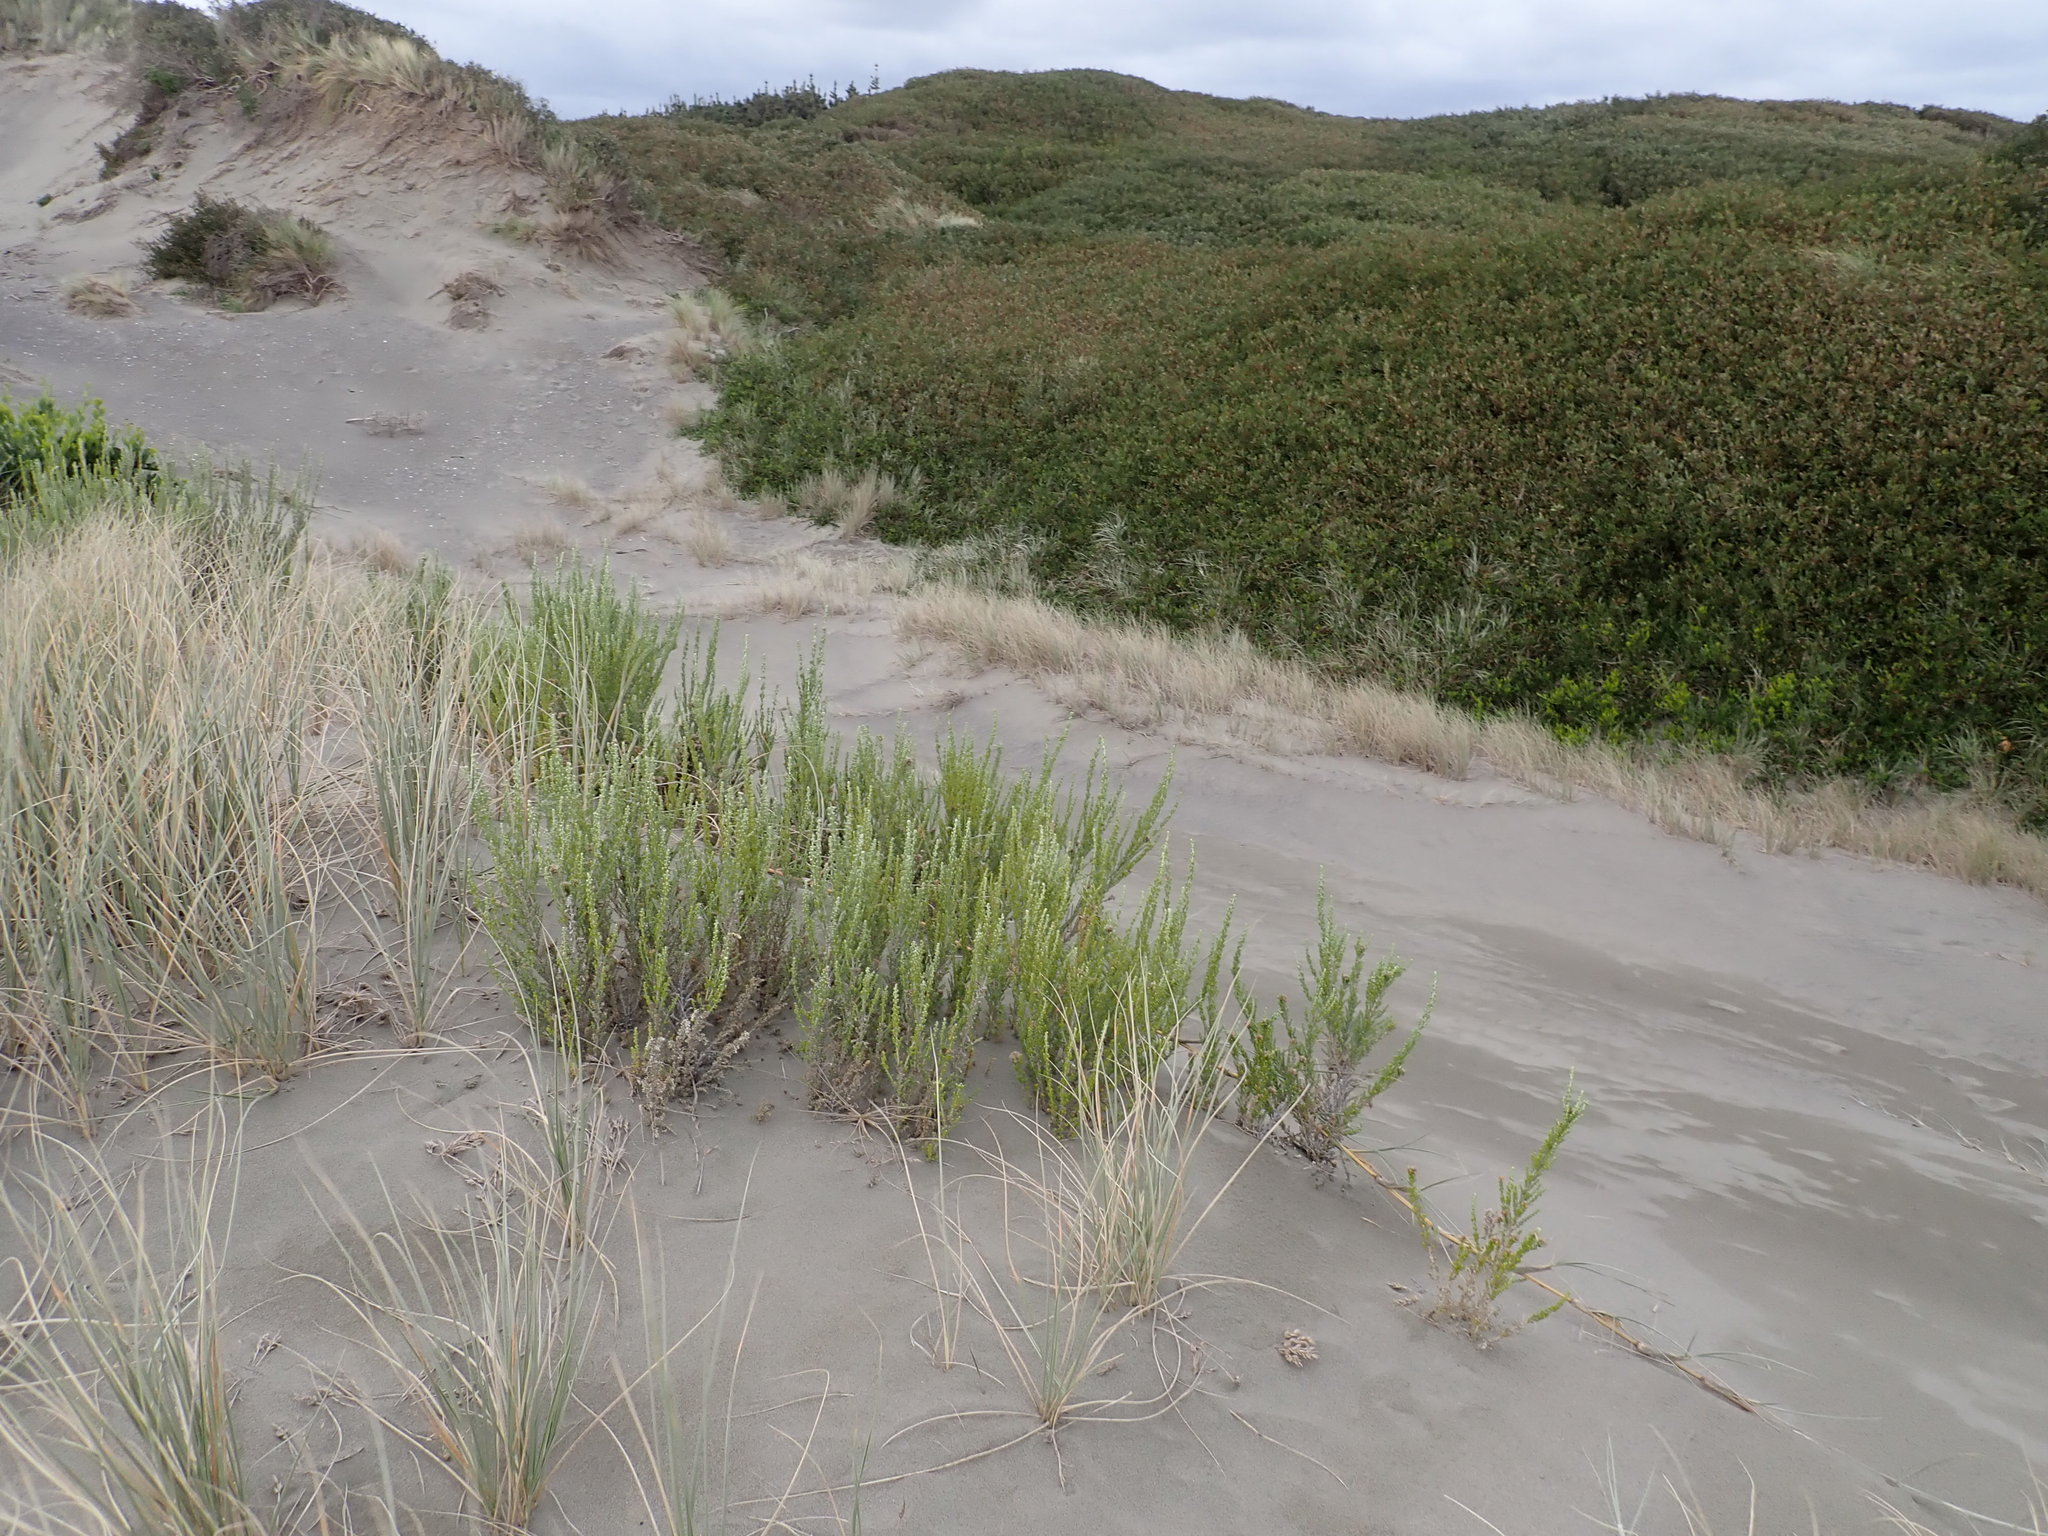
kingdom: Plantae
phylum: Tracheophyta
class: Magnoliopsida
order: Asterales
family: Asteraceae
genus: Ozothamnus
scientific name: Ozothamnus leptophyllus
